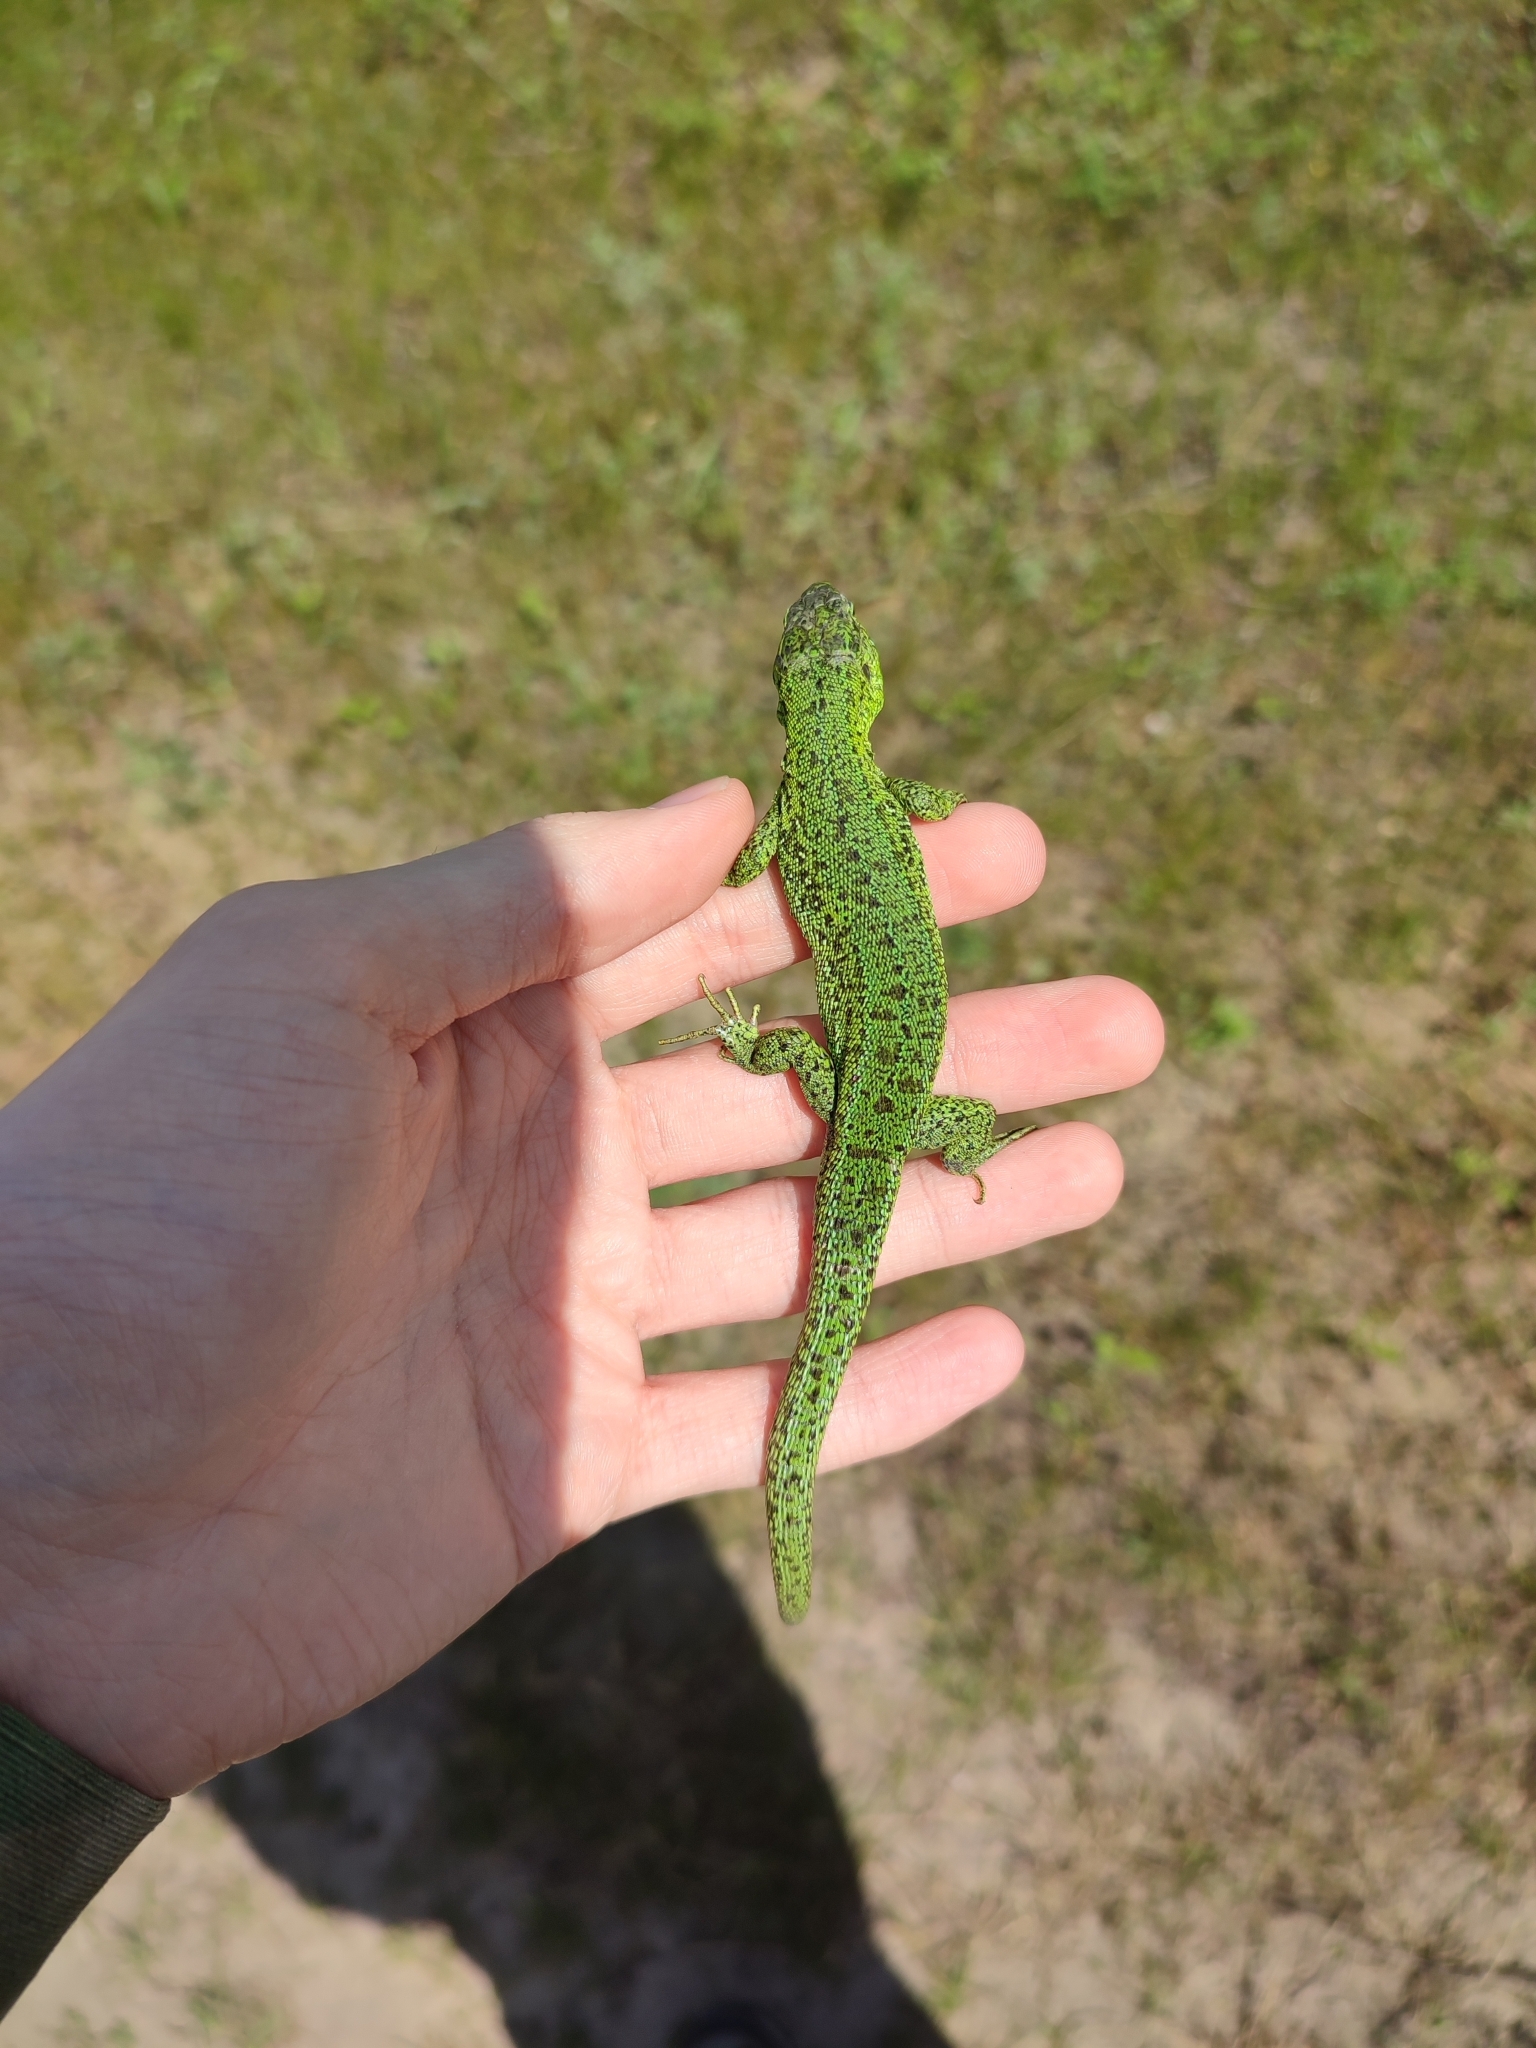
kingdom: Animalia
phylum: Chordata
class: Squamata
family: Lacertidae
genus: Lacerta
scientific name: Lacerta agilis
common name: Sand lizard
